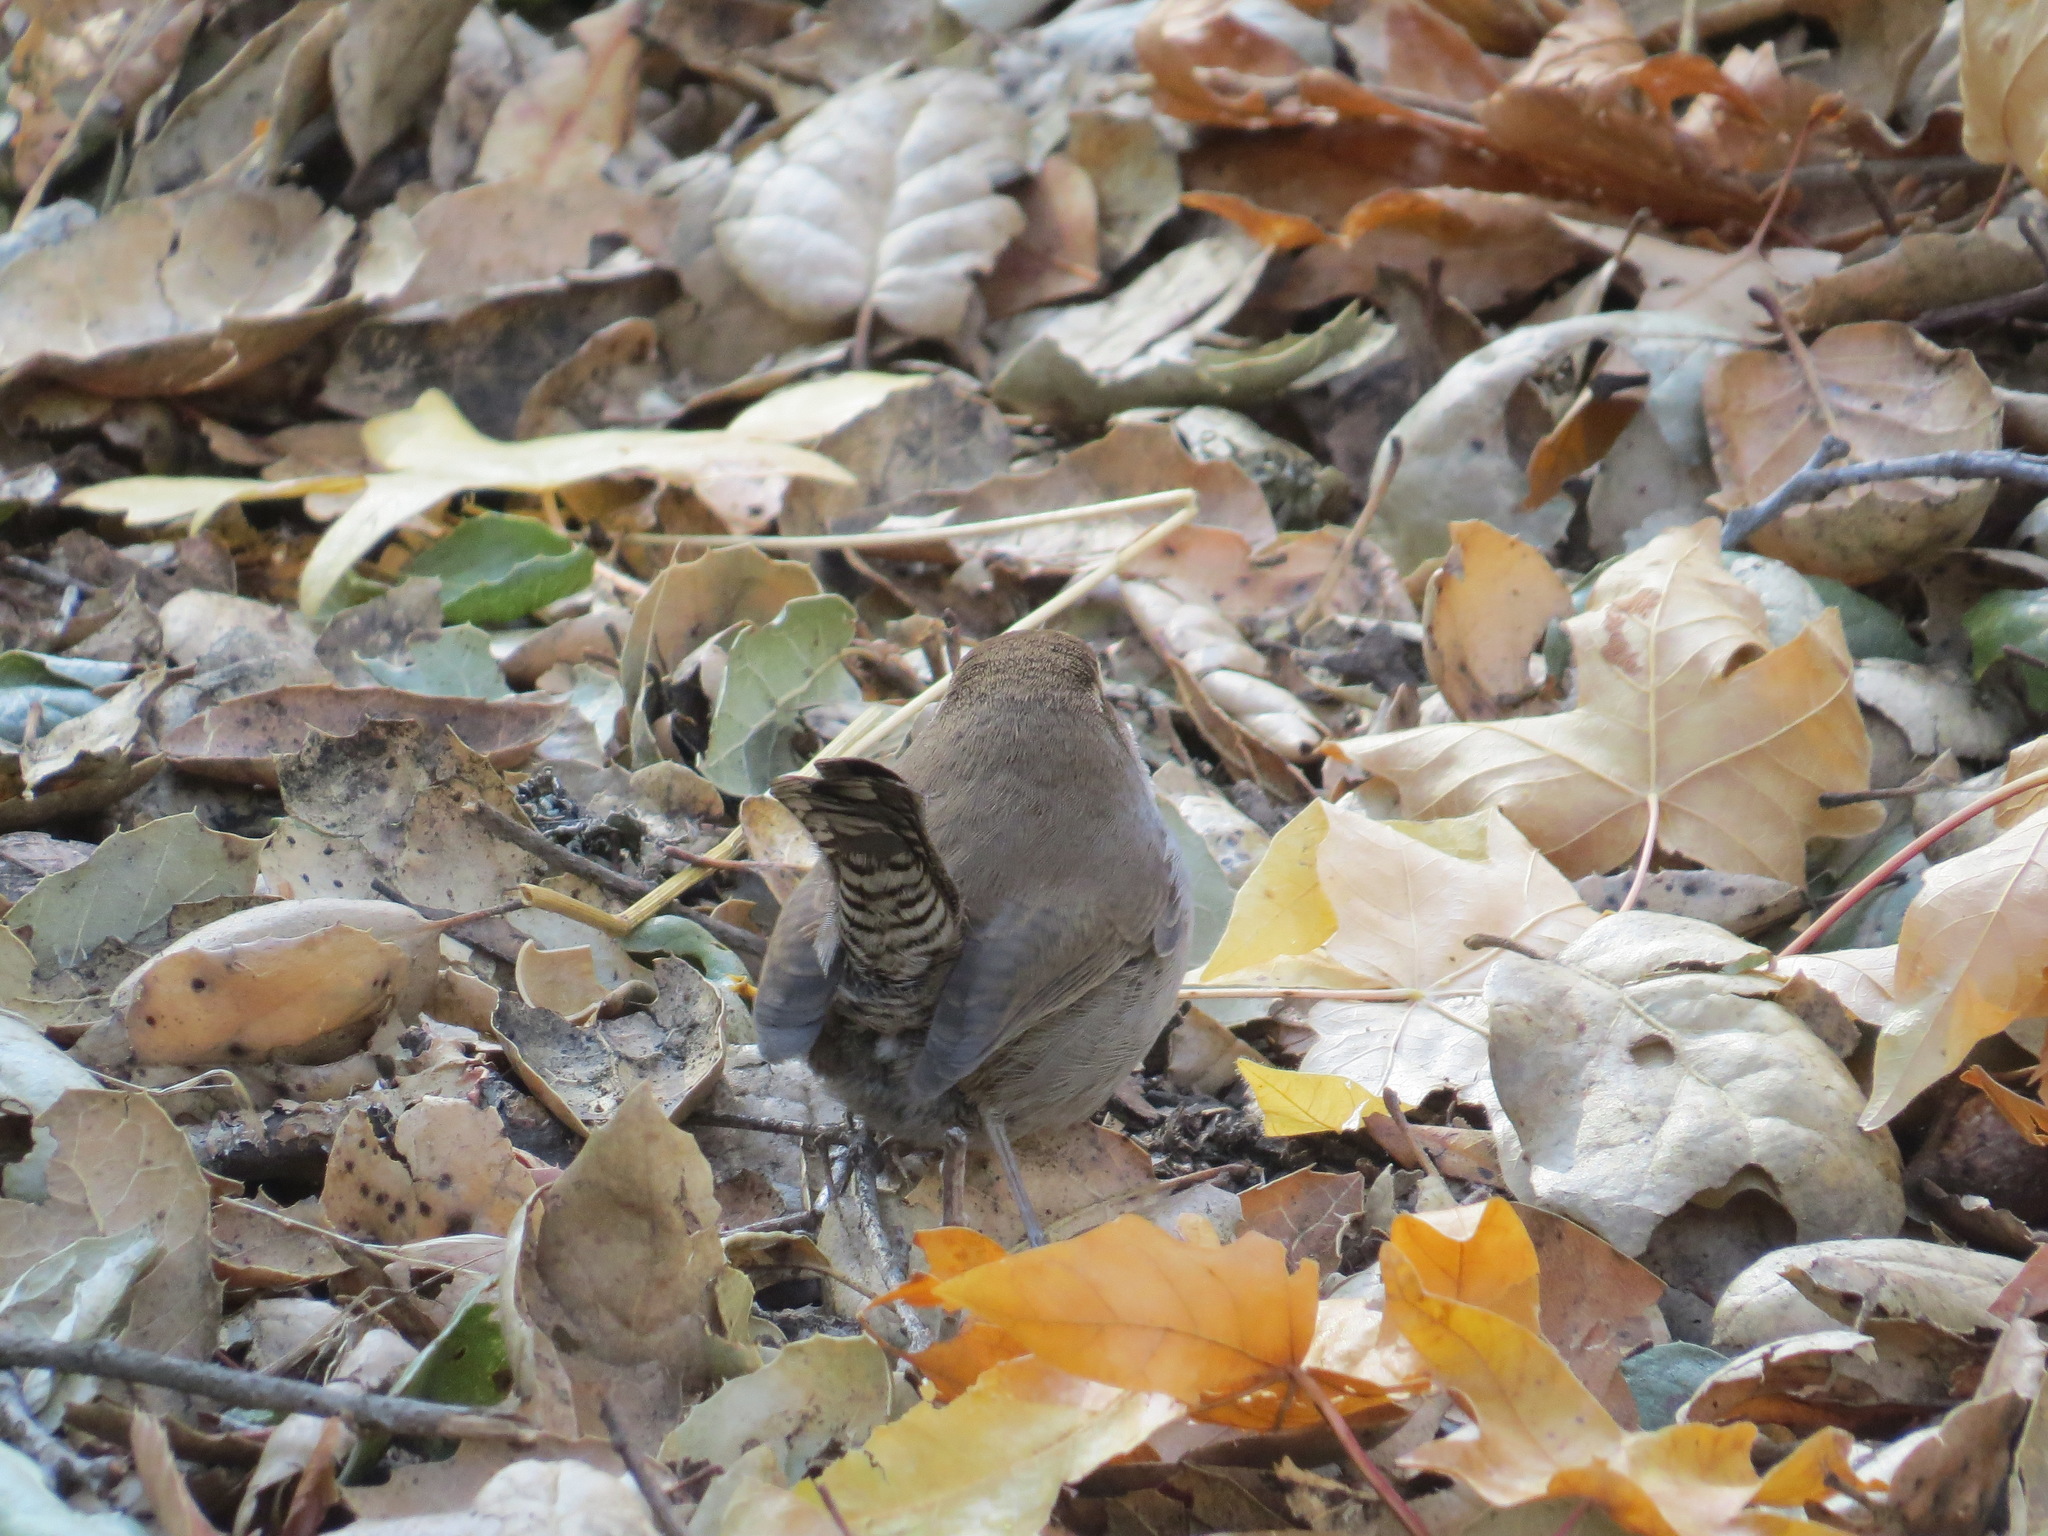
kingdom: Animalia
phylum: Chordata
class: Aves
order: Passeriformes
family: Troglodytidae
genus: Thryomanes
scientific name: Thryomanes bewickii
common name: Bewick's wren
